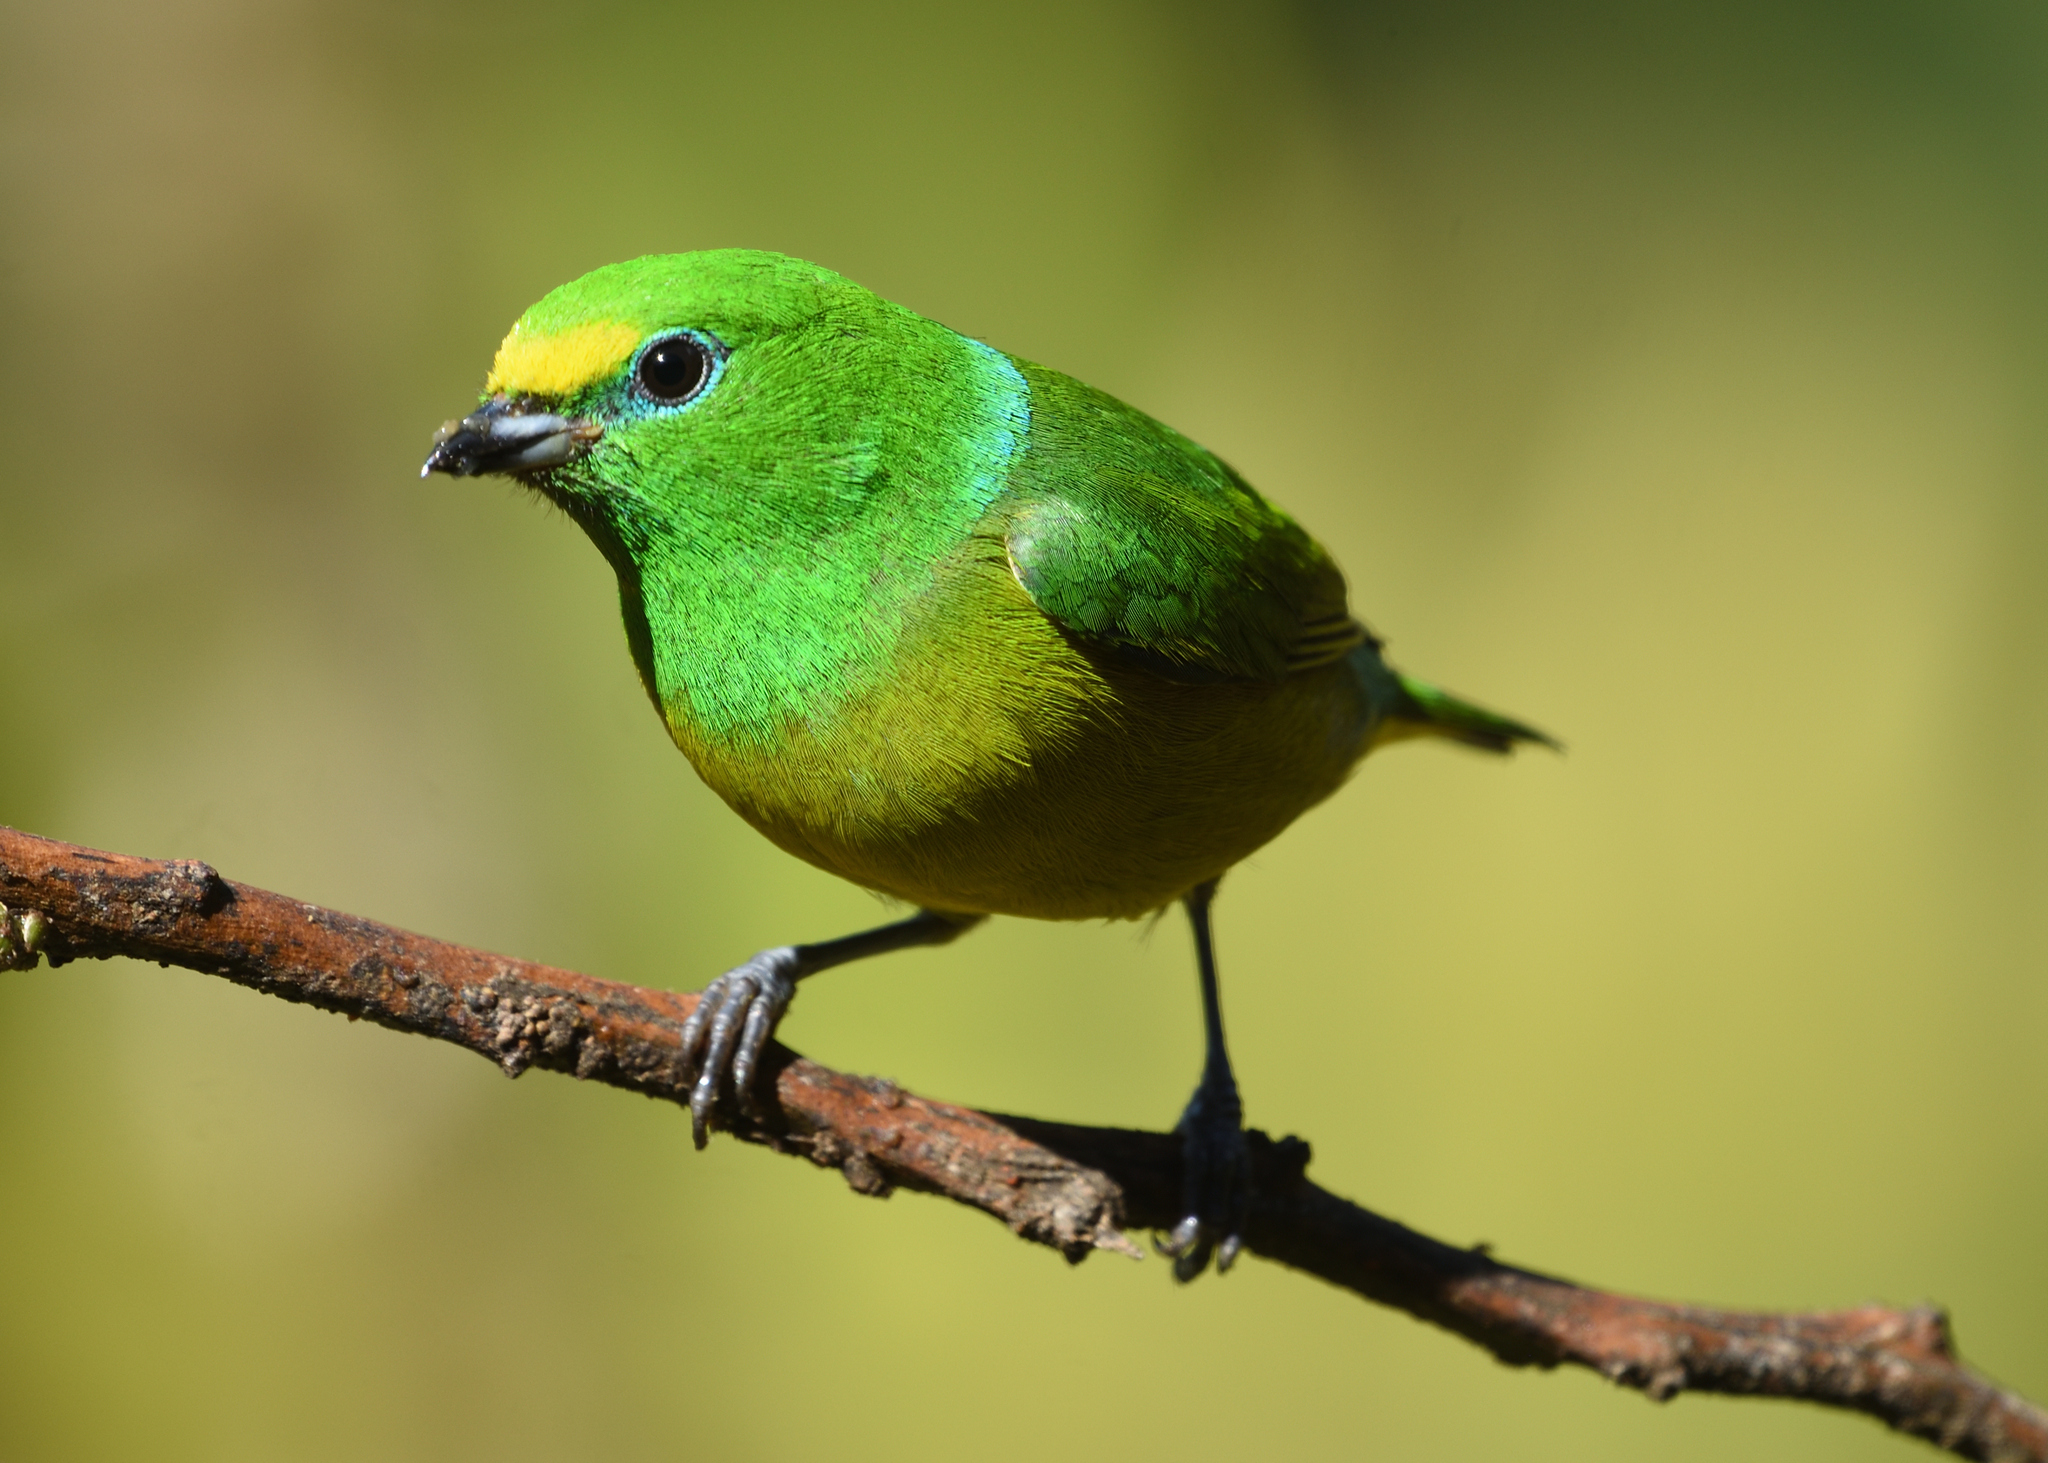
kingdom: Animalia
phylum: Chordata
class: Aves
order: Passeriformes
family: Fringillidae
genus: Chlorophonia
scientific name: Chlorophonia cyanea
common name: Blue-naped chlorophonia
